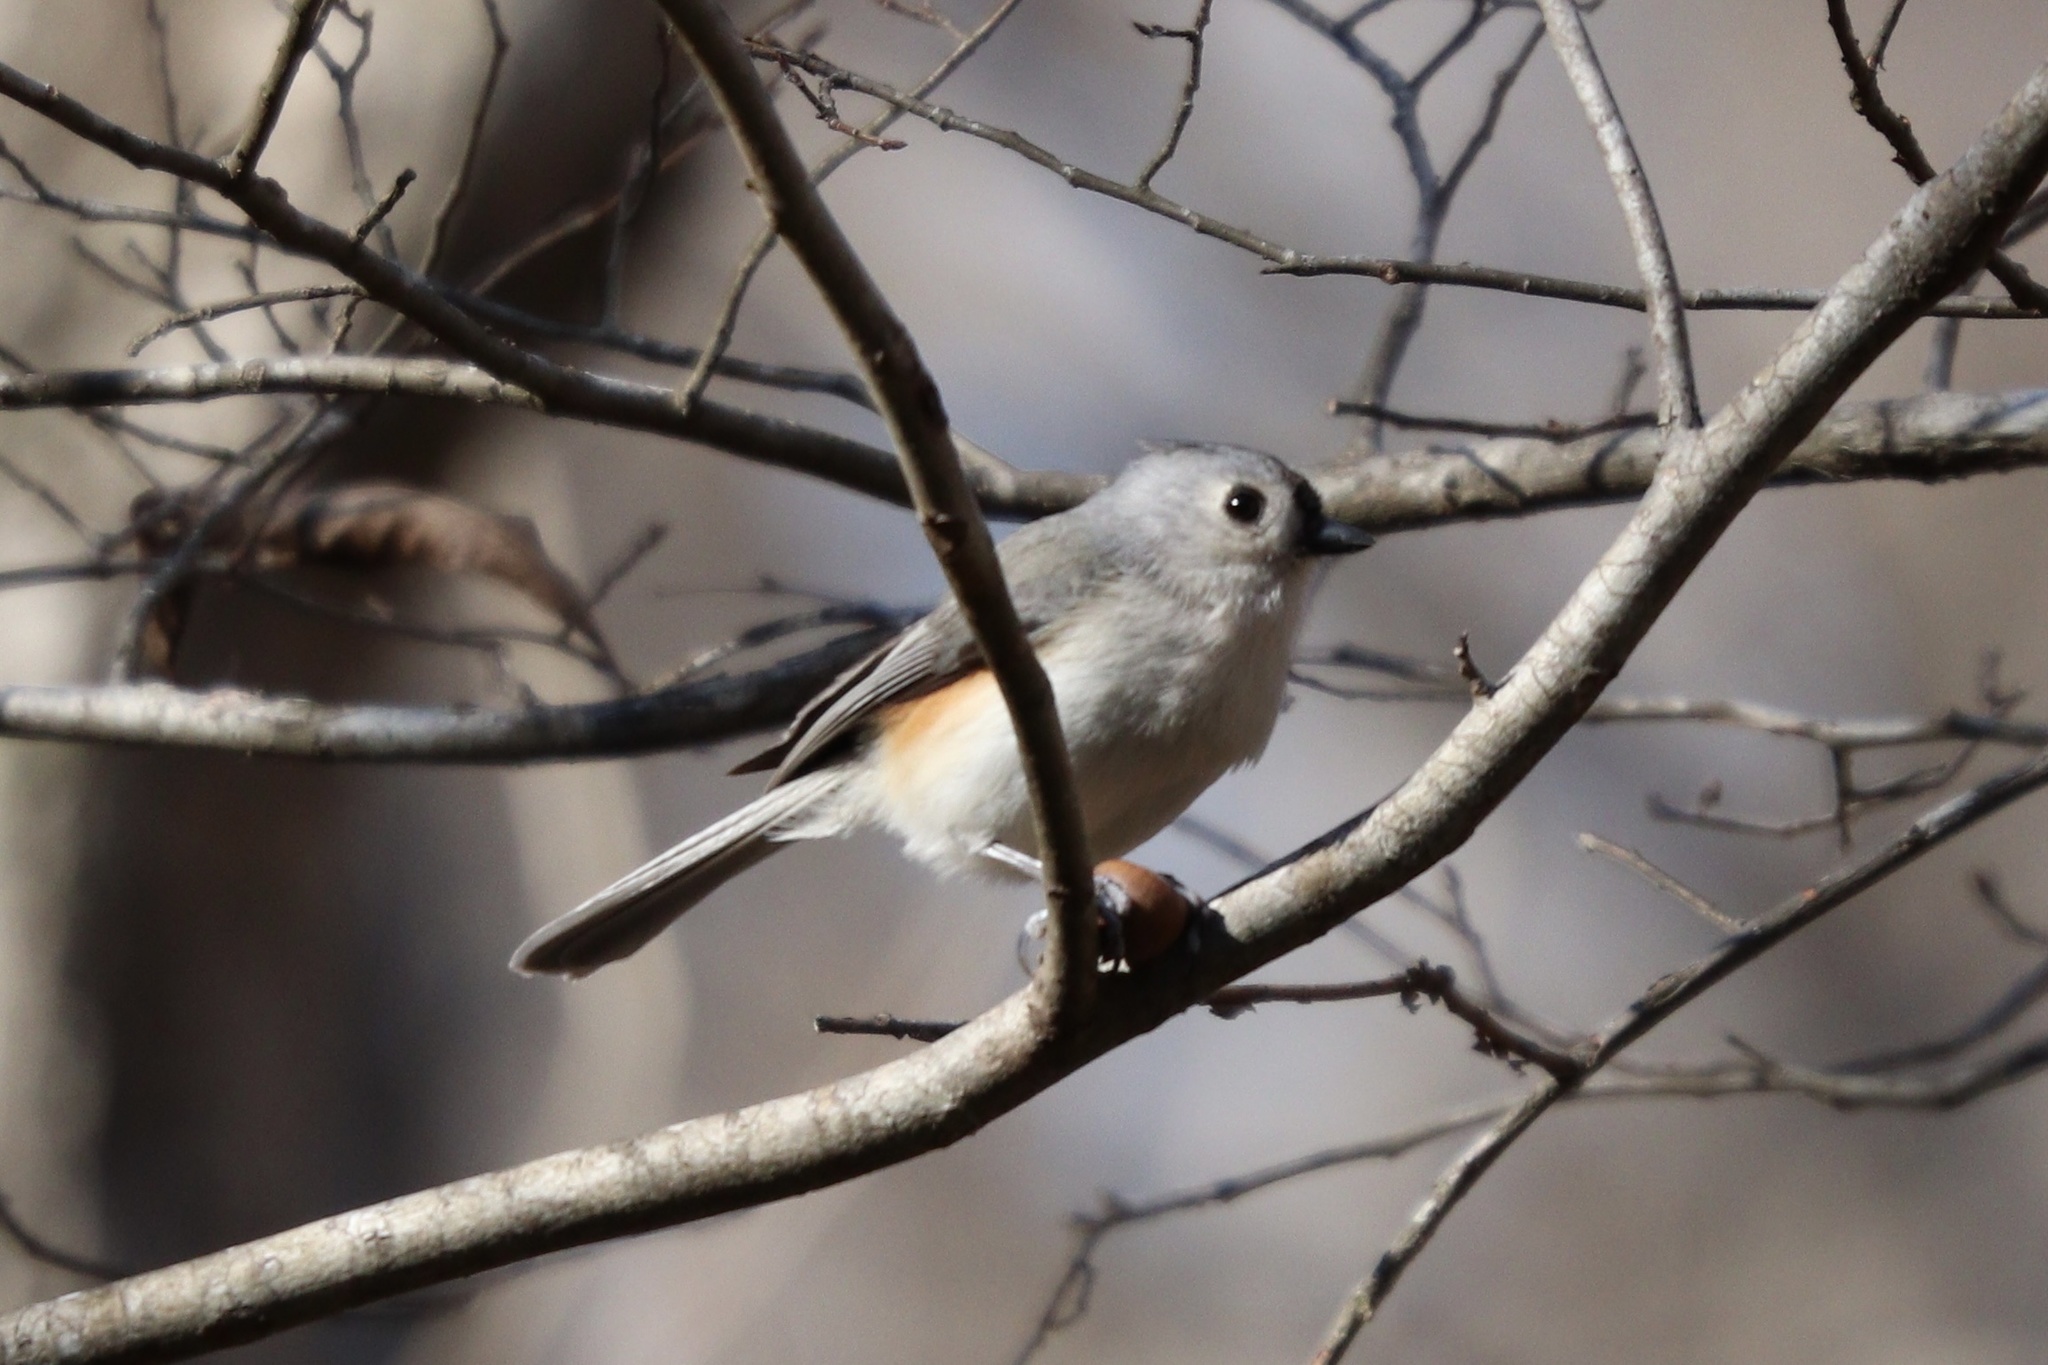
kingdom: Animalia
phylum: Chordata
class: Aves
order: Passeriformes
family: Paridae
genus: Baeolophus
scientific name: Baeolophus bicolor
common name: Tufted titmouse
